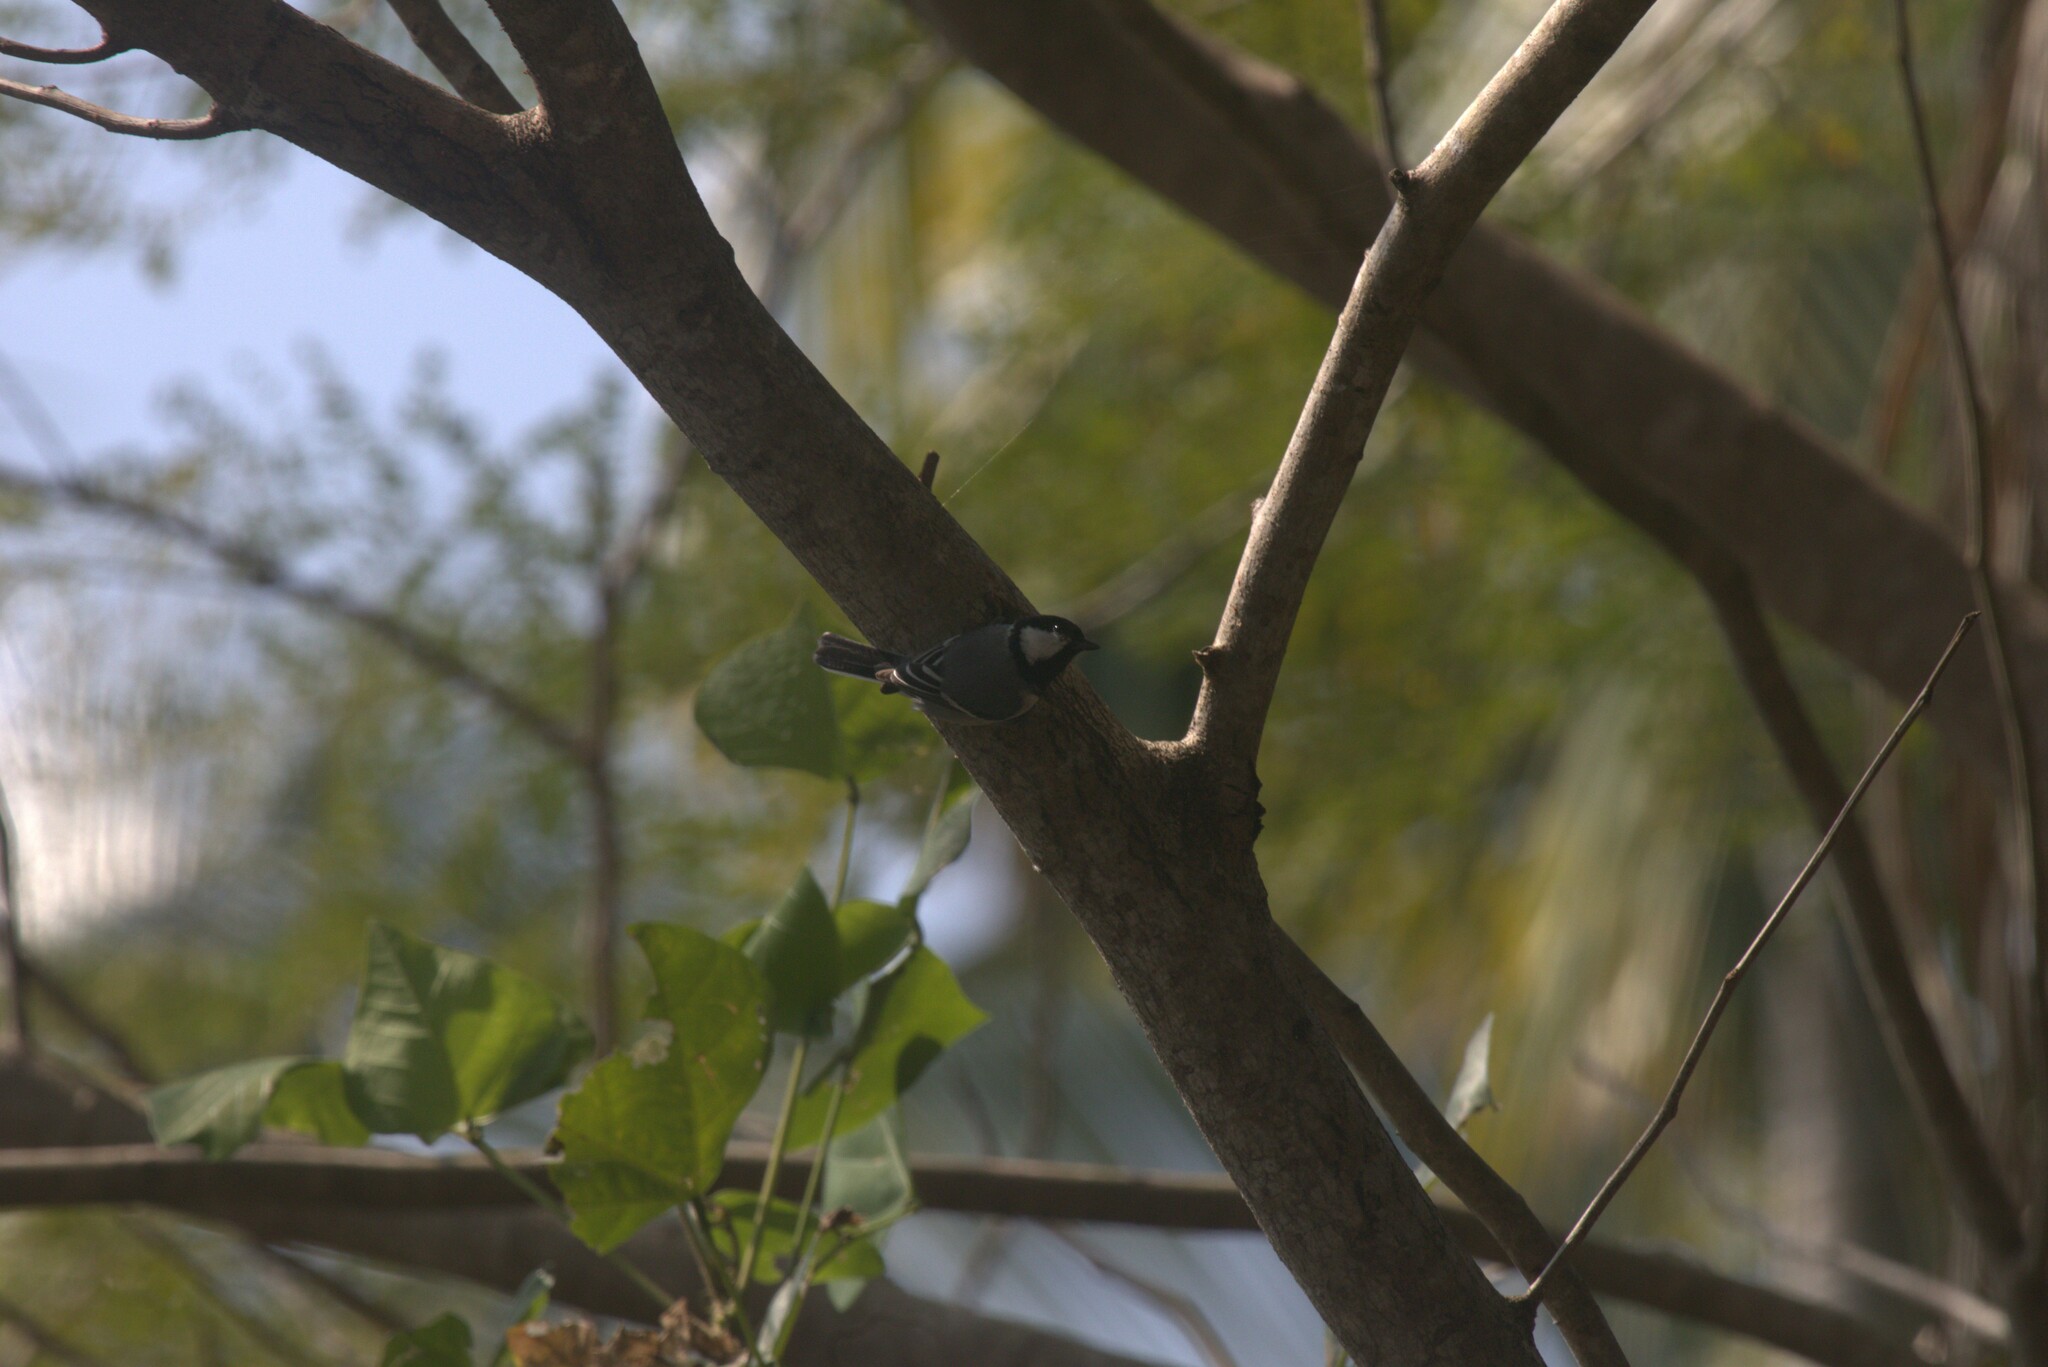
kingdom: Animalia
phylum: Chordata
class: Aves
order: Passeriformes
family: Paridae
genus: Parus
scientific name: Parus cinereus
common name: Cinereous tit
